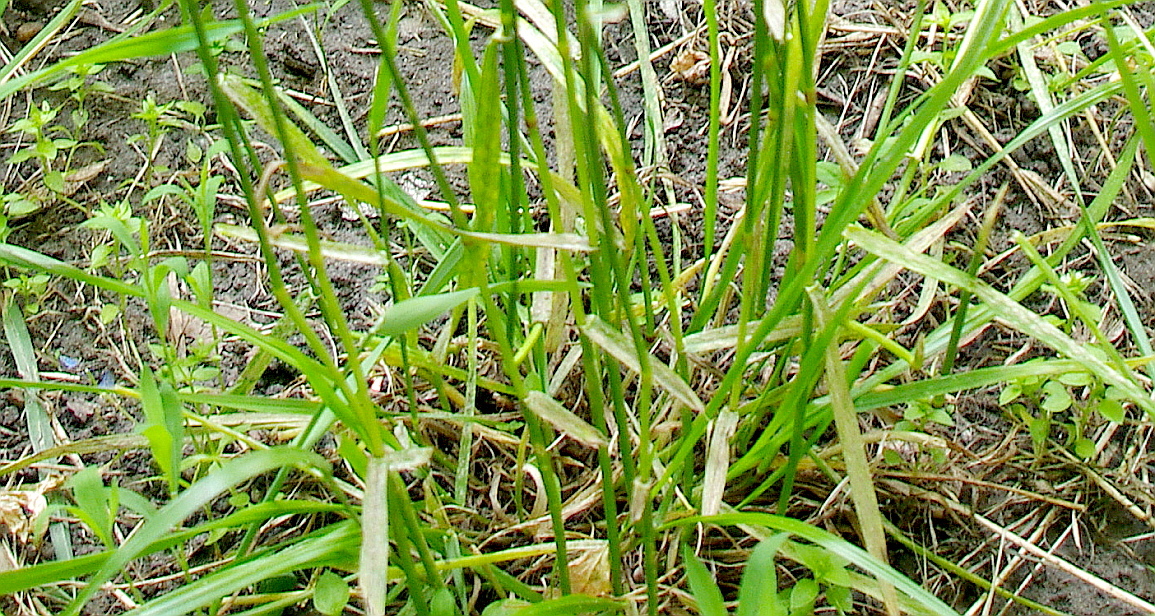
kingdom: Plantae
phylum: Tracheophyta
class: Liliopsida
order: Poales
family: Poaceae
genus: Lolium
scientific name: Lolium pratense
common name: Dover grass
